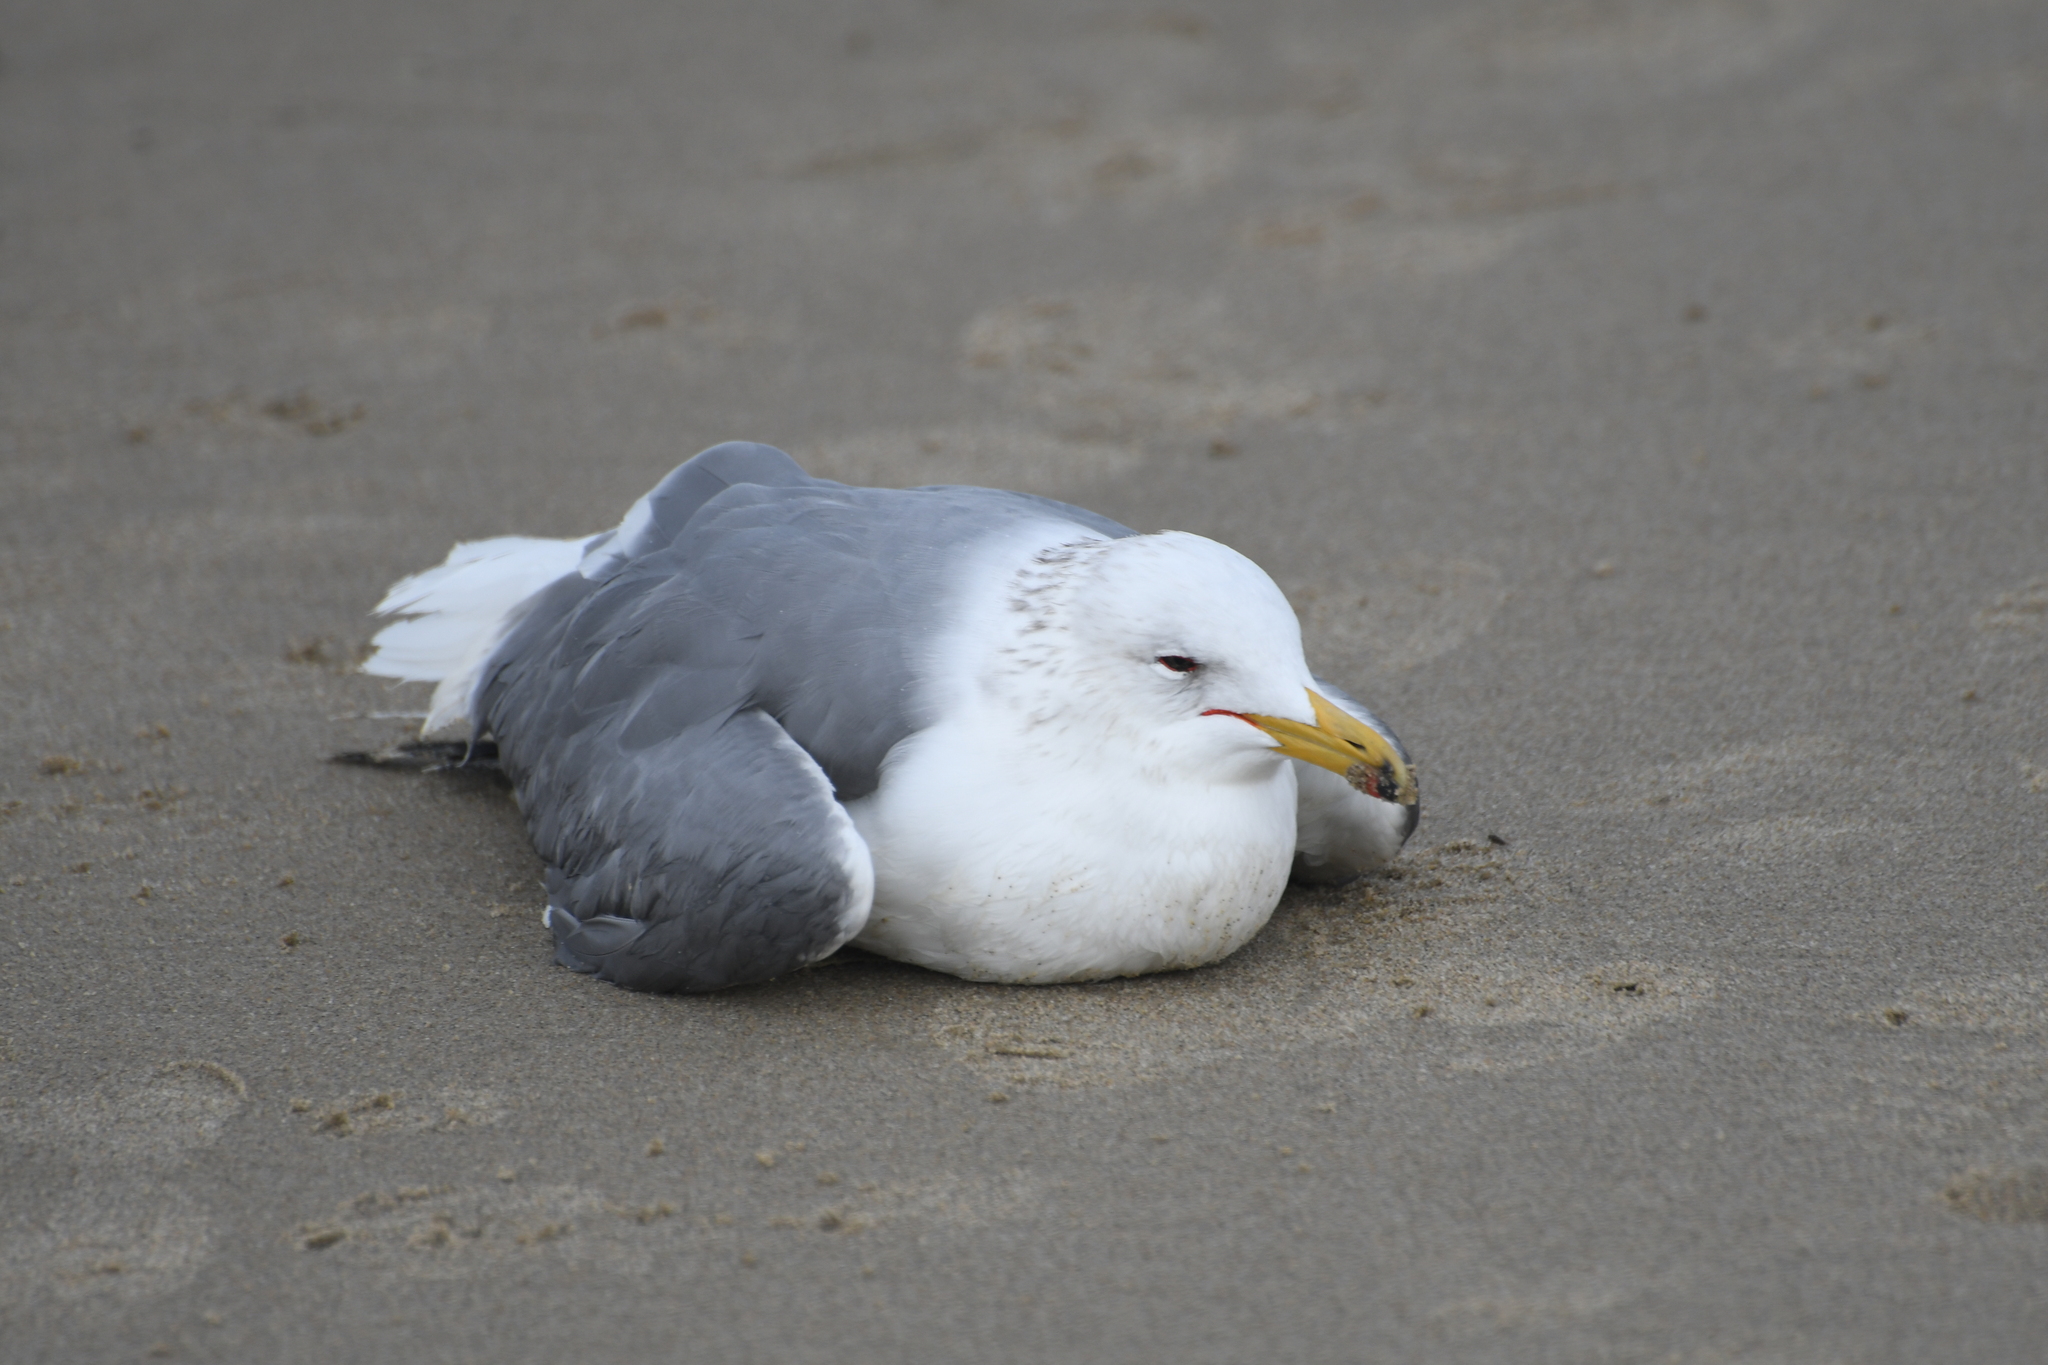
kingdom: Animalia
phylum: Chordata
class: Aves
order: Charadriiformes
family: Laridae
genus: Larus
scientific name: Larus californicus
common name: California gull
